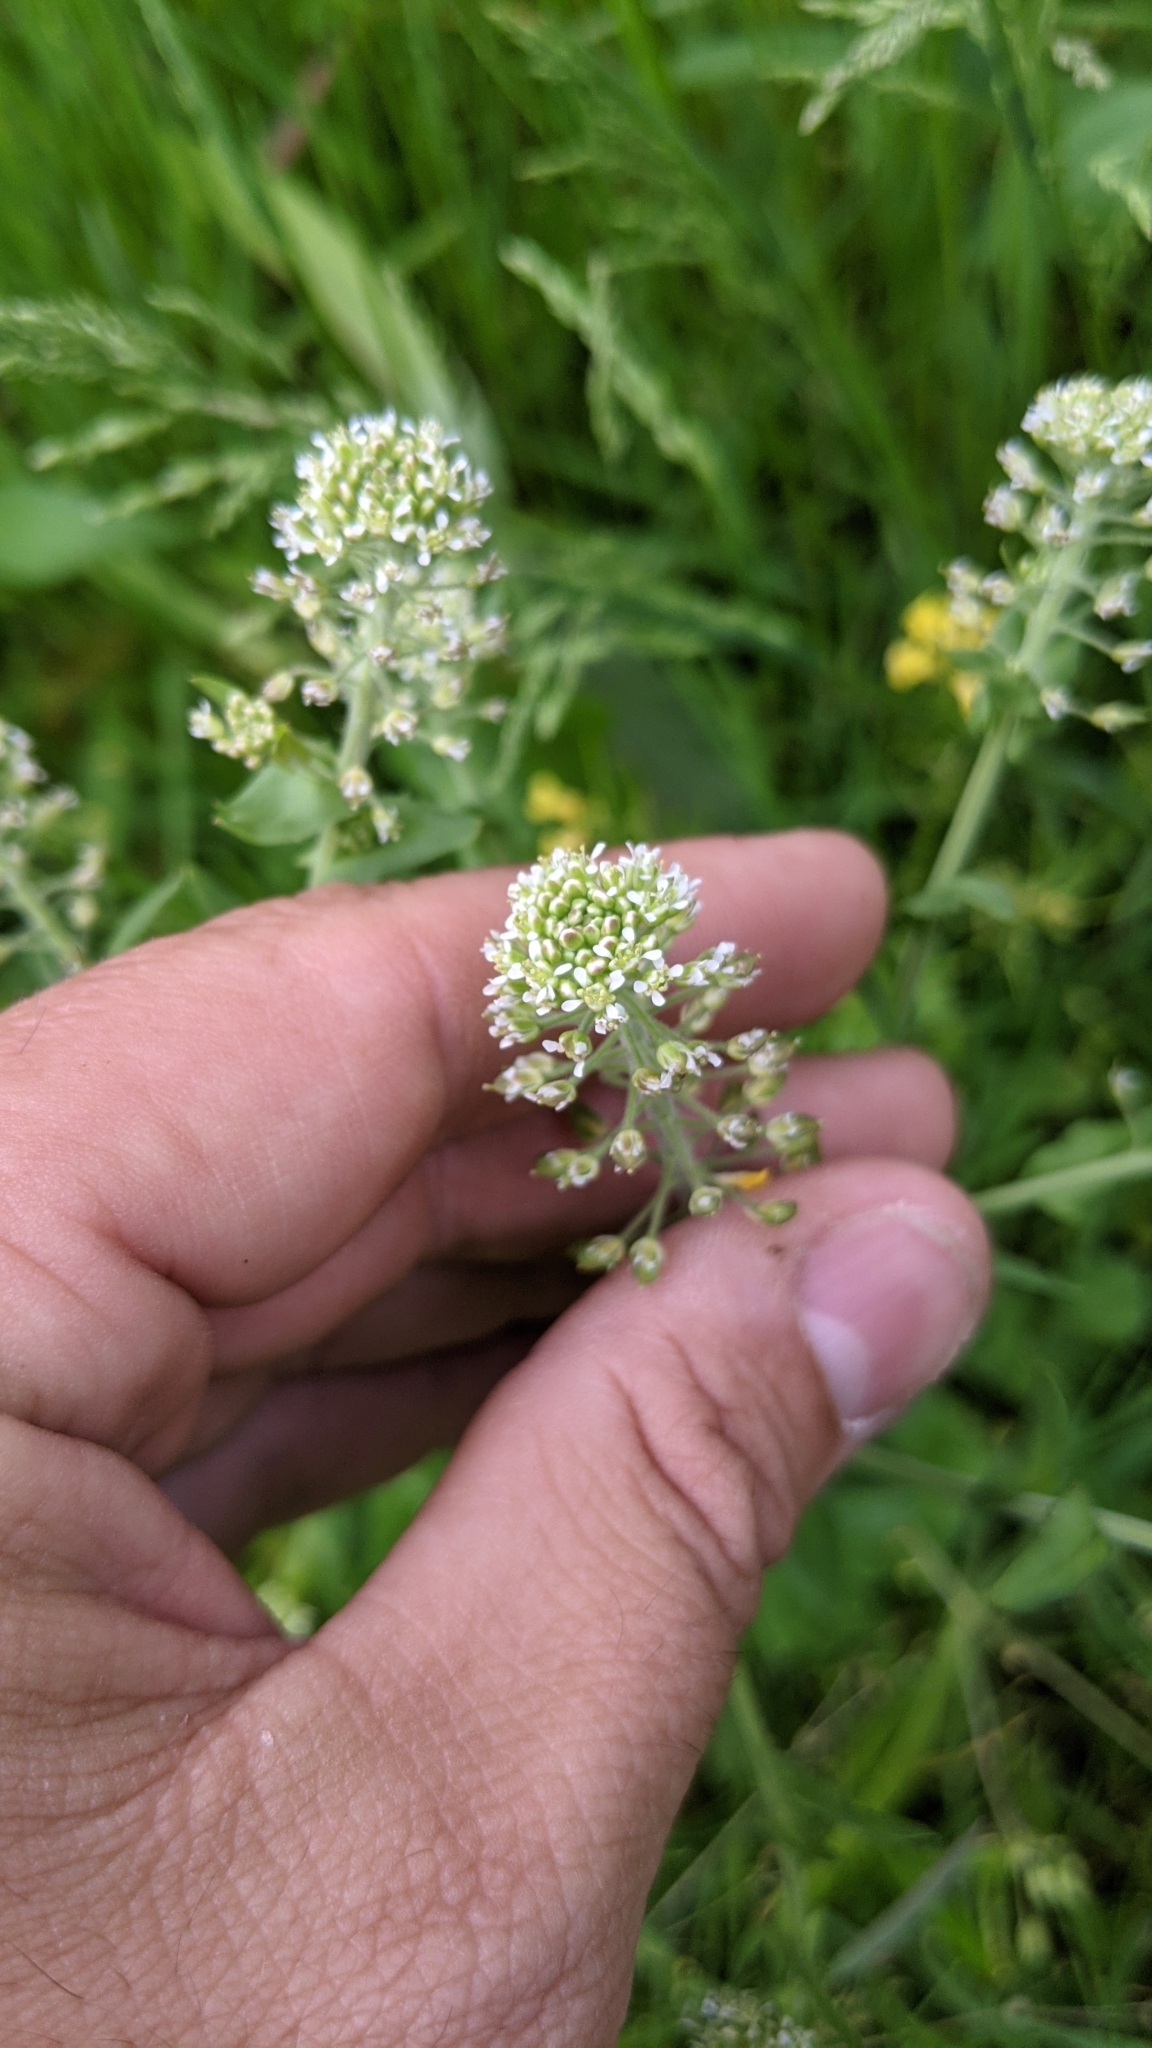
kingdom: Plantae
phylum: Tracheophyta
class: Magnoliopsida
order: Brassicales
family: Brassicaceae
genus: Lepidium
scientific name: Lepidium campestre
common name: Field pepperwort
